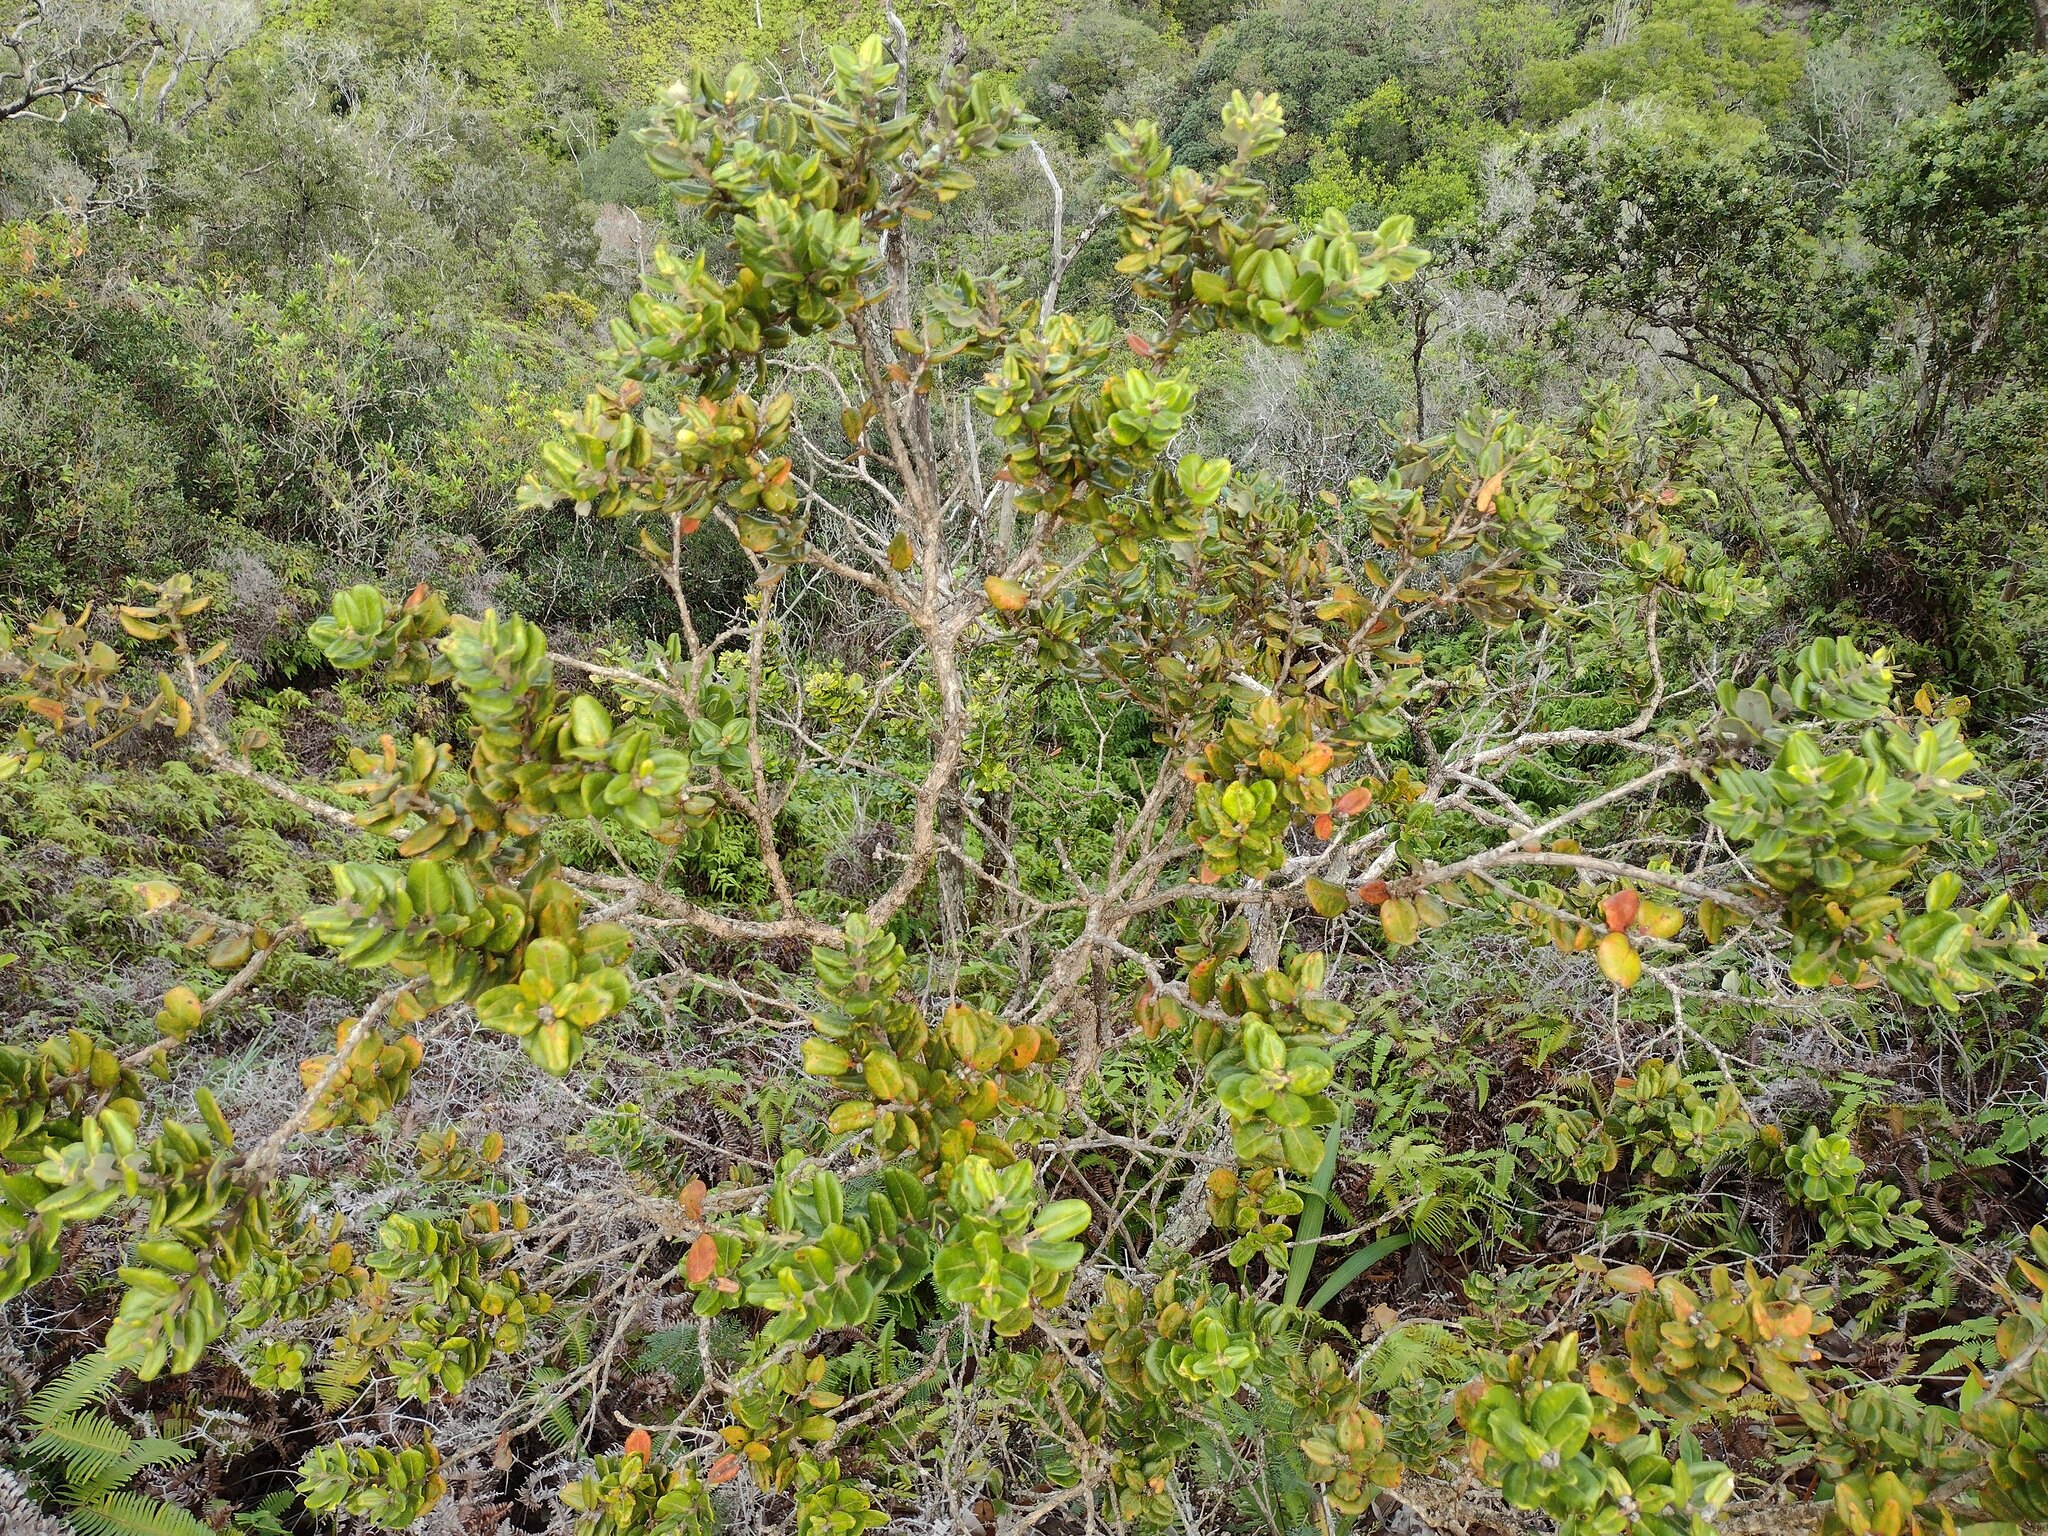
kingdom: Plantae
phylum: Tracheophyta
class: Magnoliopsida
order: Myrtales
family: Myrtaceae
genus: Metrosideros
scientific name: Metrosideros polymorpha
